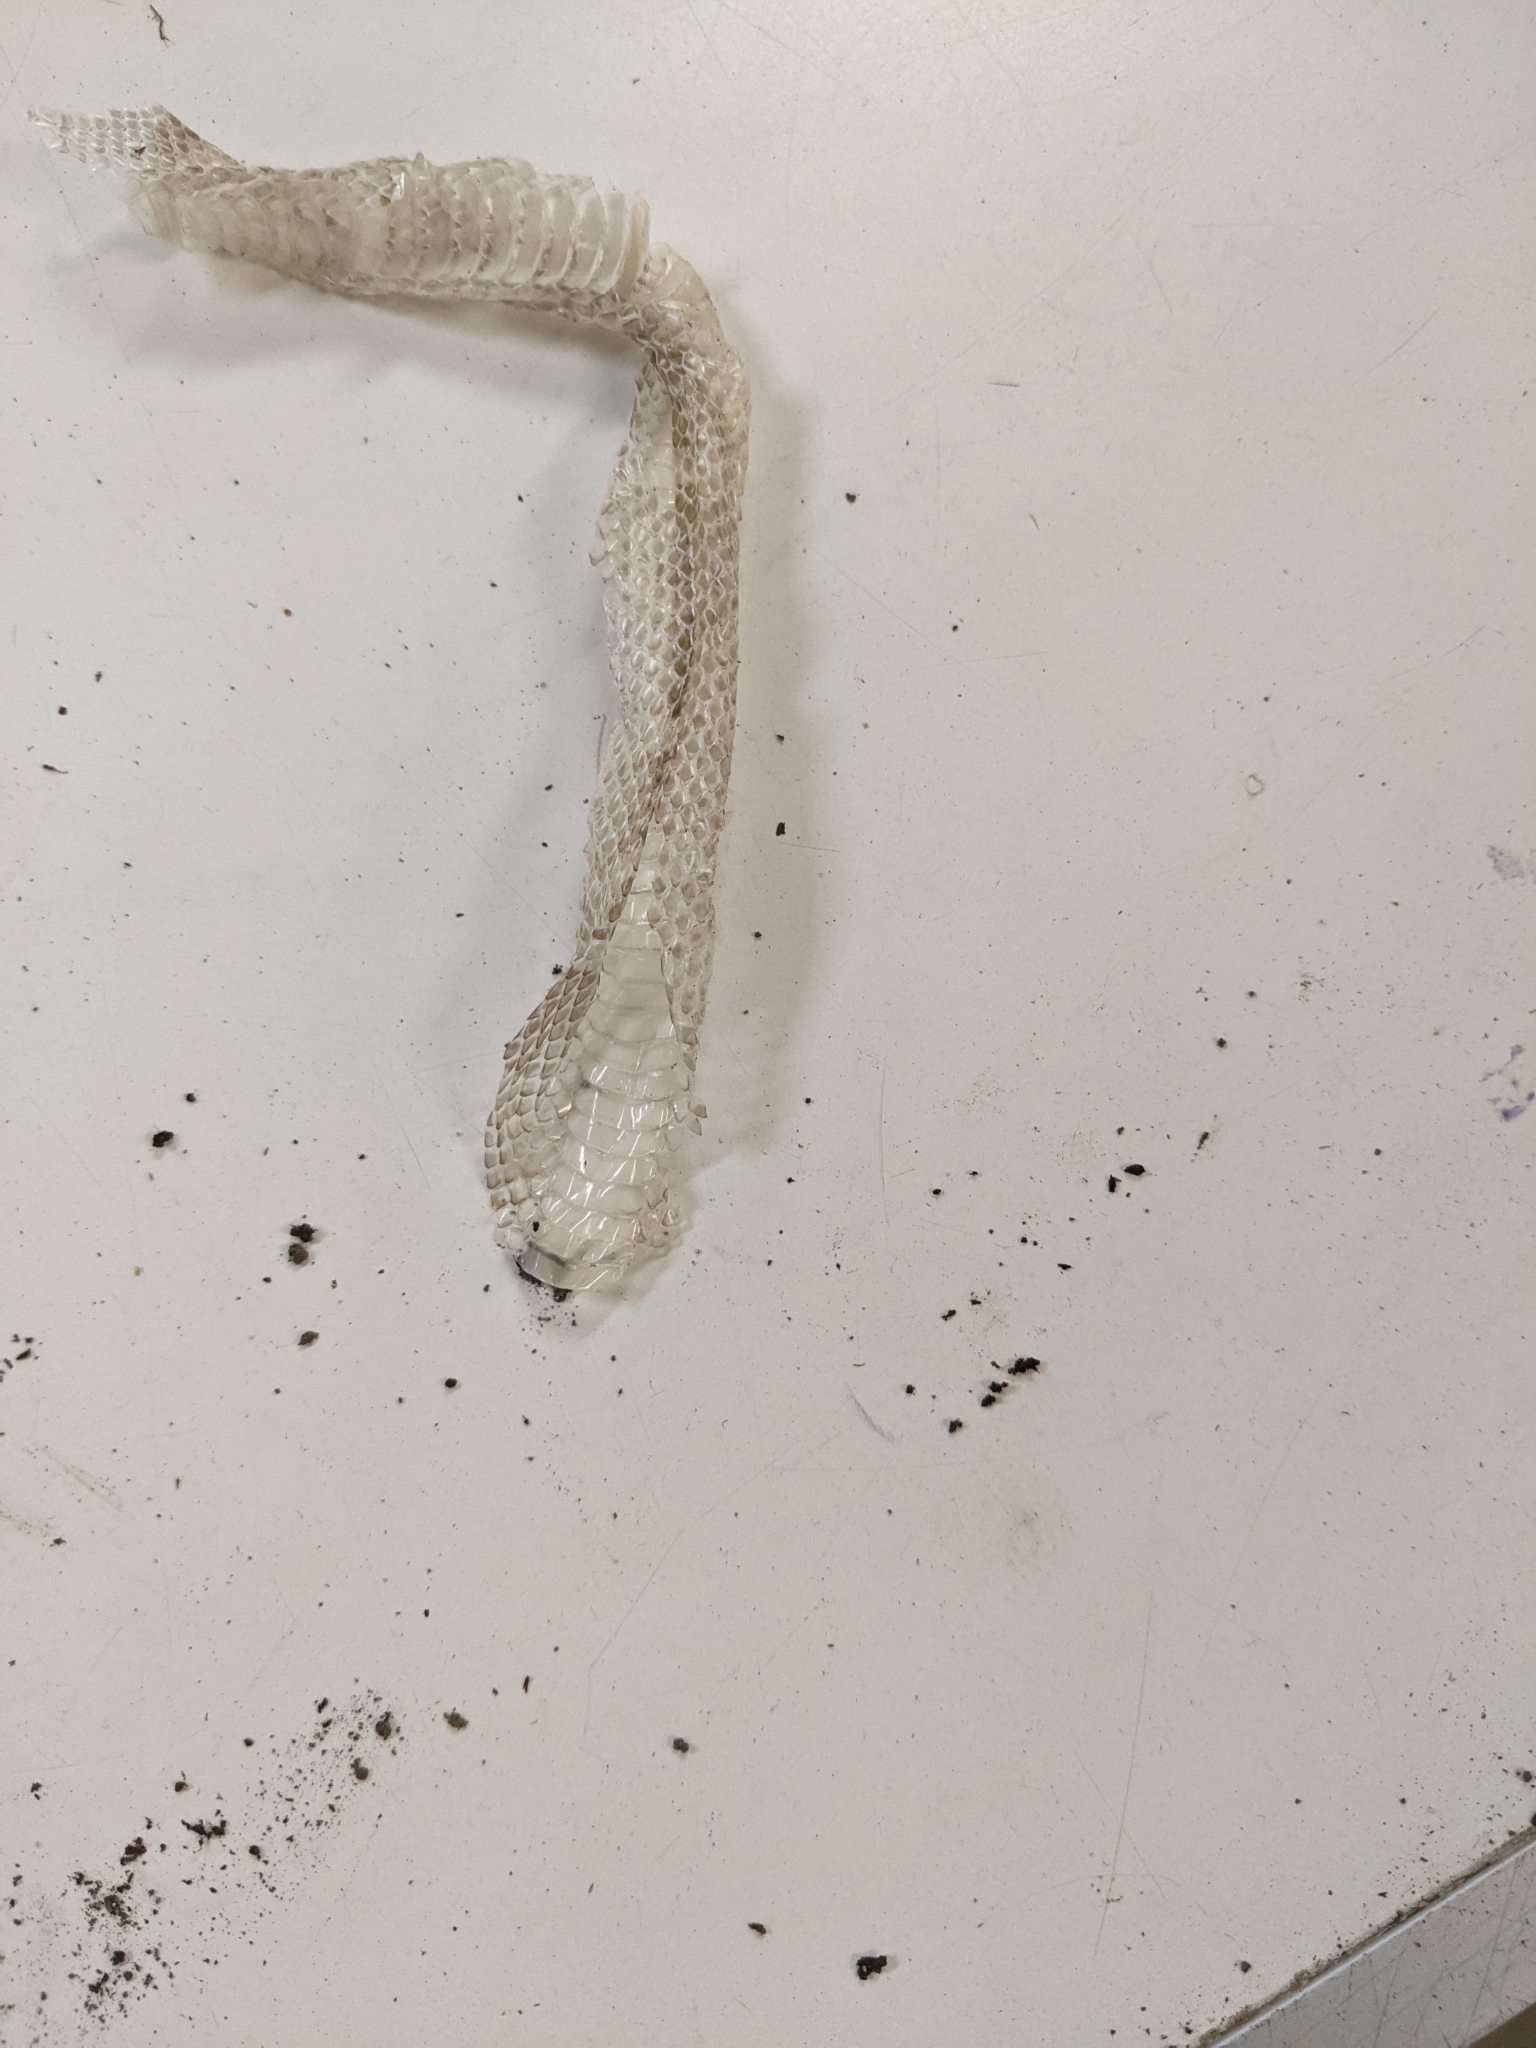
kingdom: Animalia
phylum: Chordata
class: Squamata
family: Colubridae
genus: Lampropeltis
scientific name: Lampropeltis triangulum
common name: Eastern milksnake
